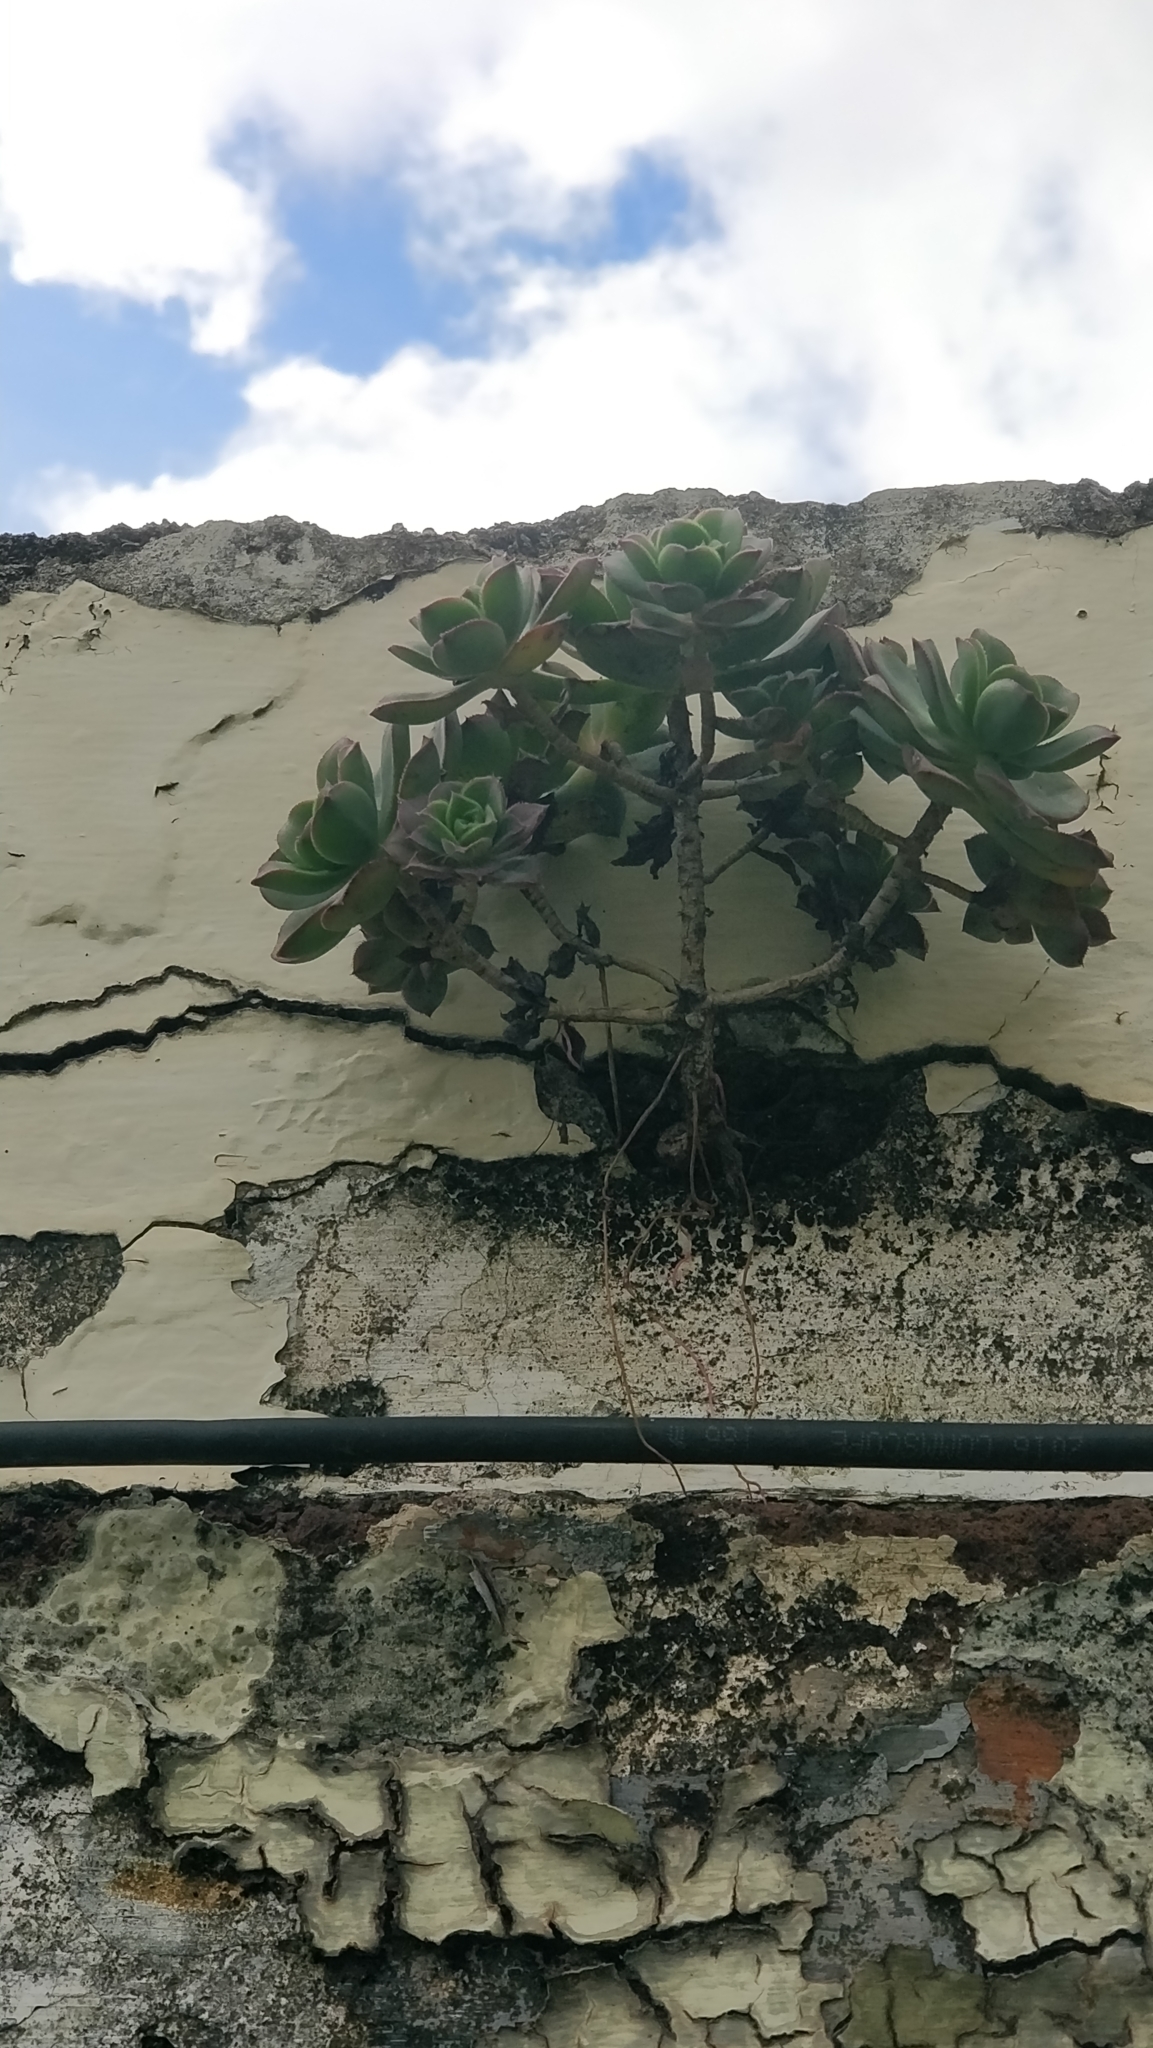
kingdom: Plantae
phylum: Tracheophyta
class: Magnoliopsida
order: Saxifragales
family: Crassulaceae
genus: Aeonium
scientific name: Aeonium haworthii
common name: Haworth's aeonium
